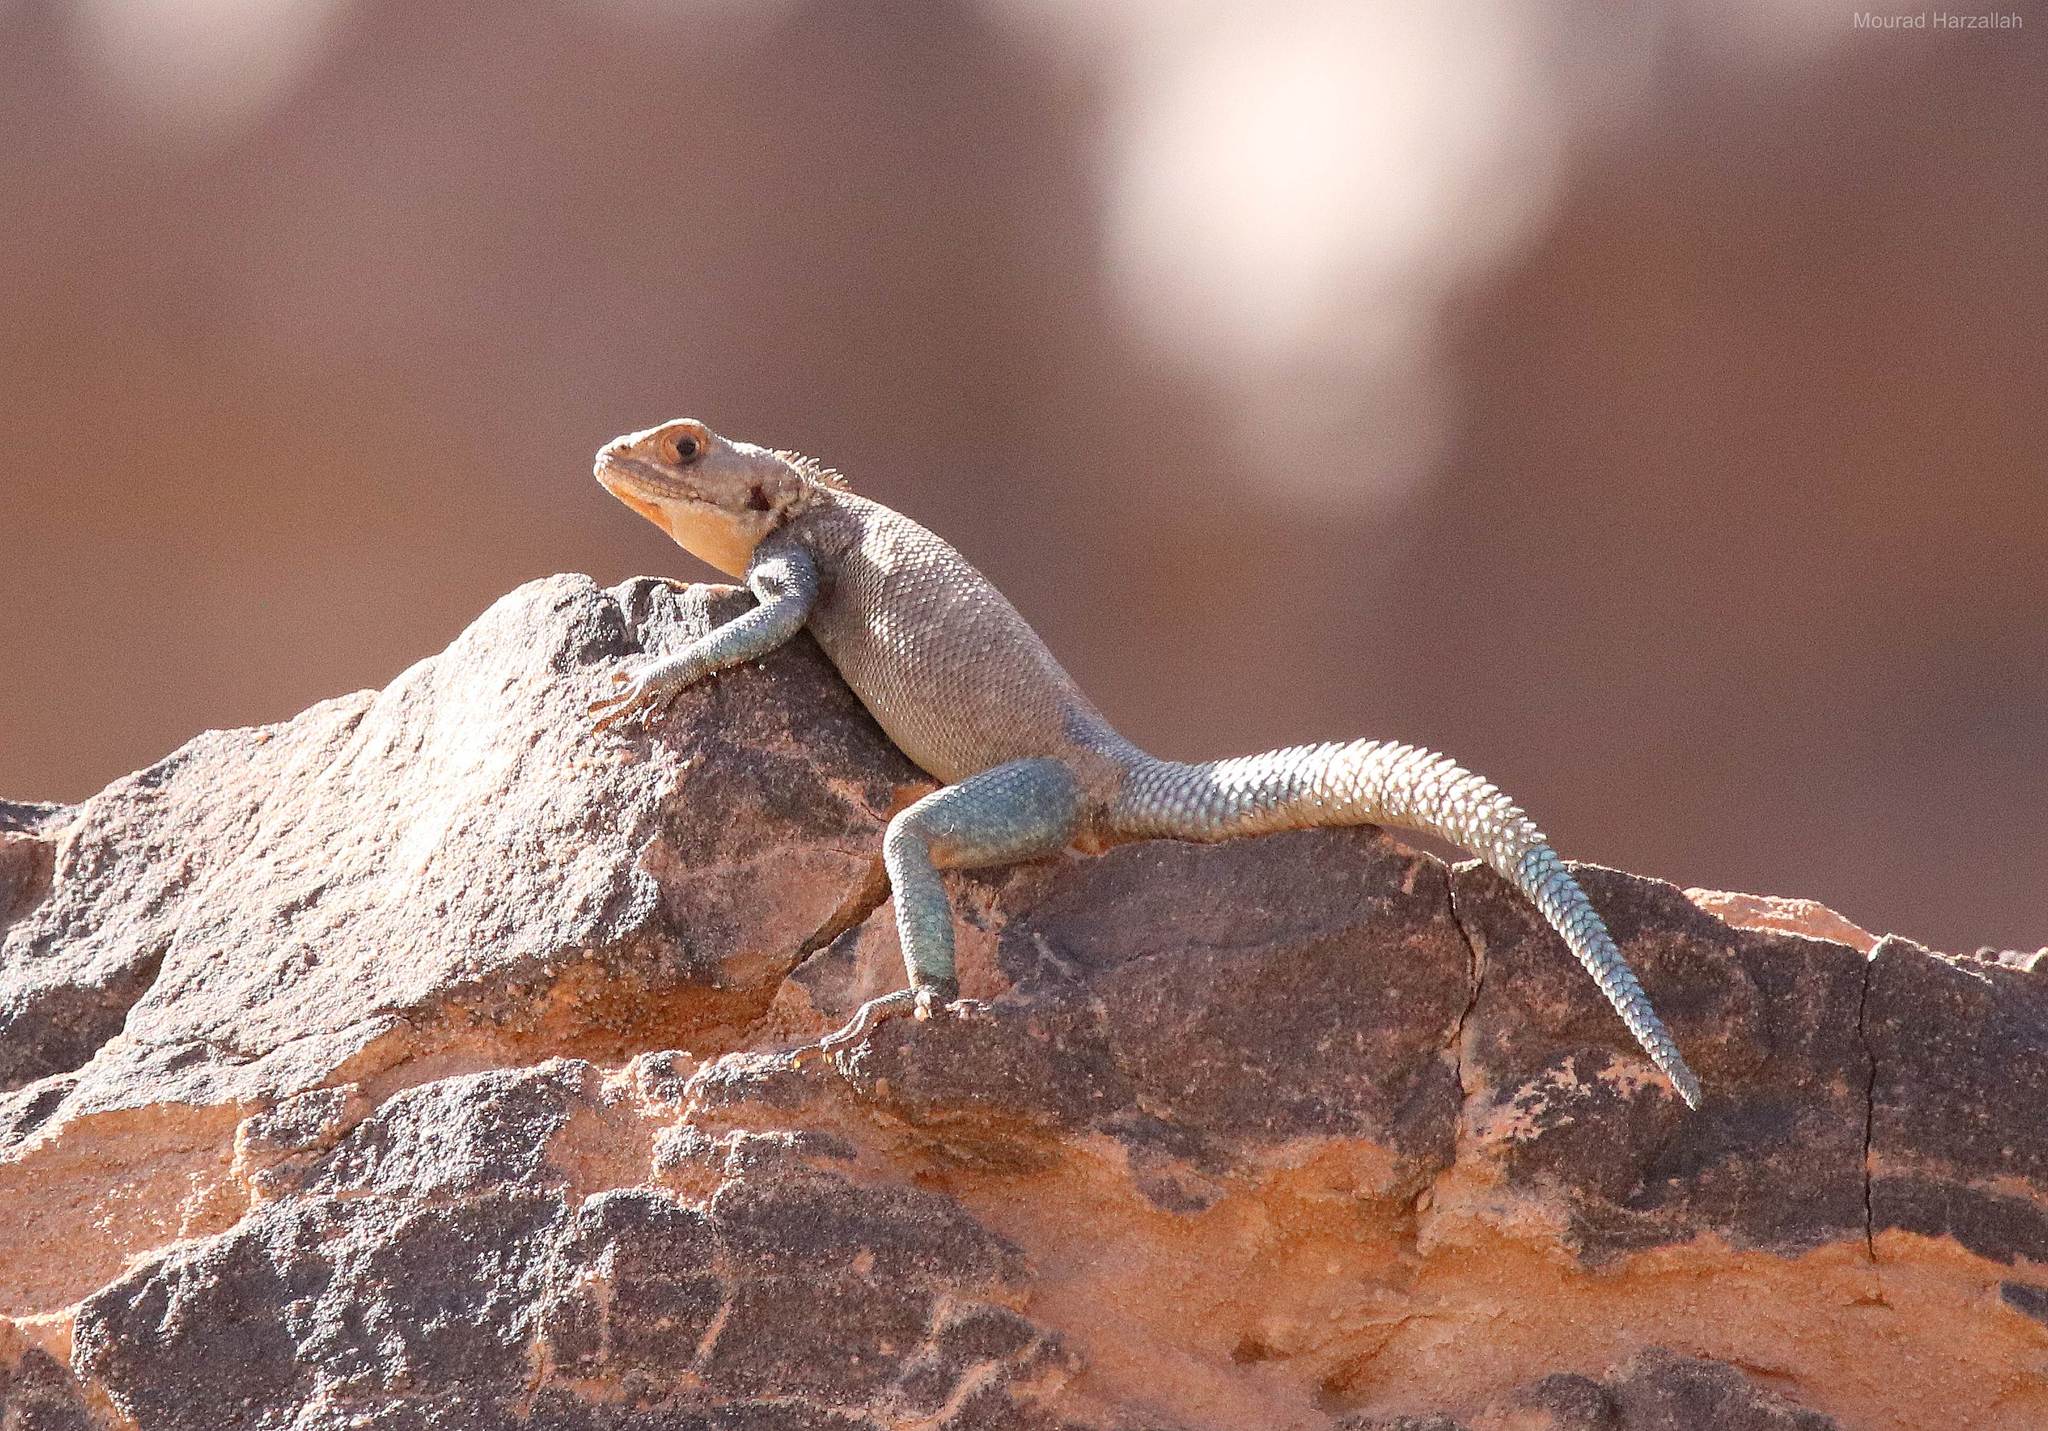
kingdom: Animalia
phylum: Chordata
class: Squamata
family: Agamidae
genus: Agama
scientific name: Agama tassiliensis
